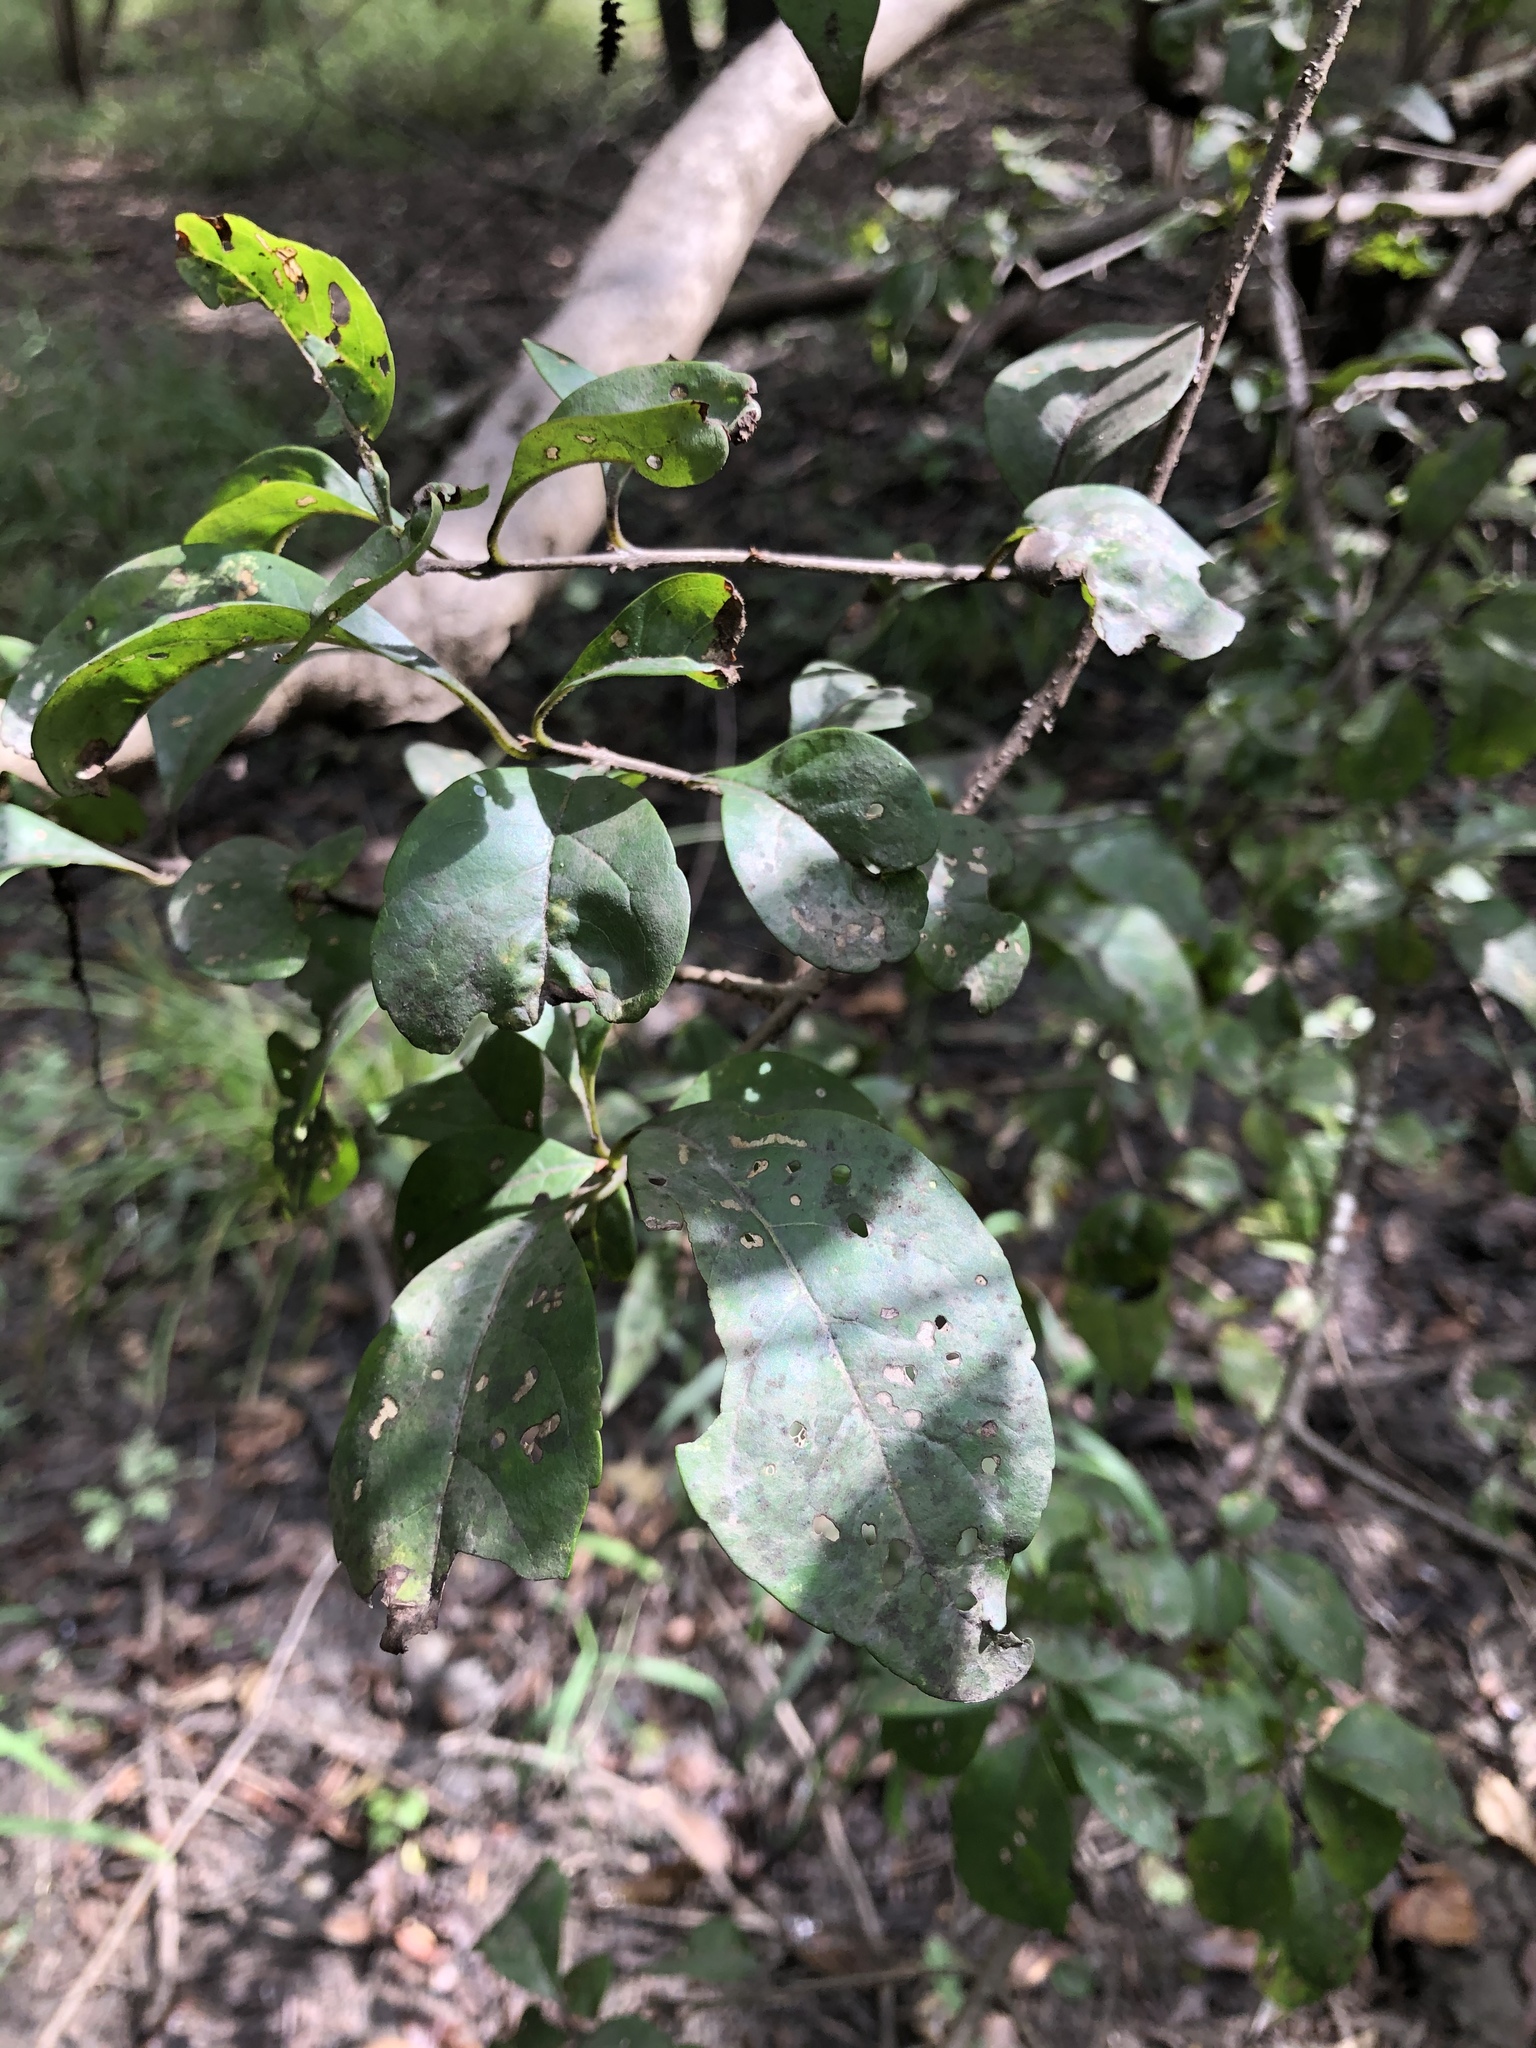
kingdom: Plantae
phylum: Tracheophyta
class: Magnoliopsida
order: Lamiales
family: Oleaceae
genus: Forestiera
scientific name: Forestiera acuminata
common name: Swamp-privet
